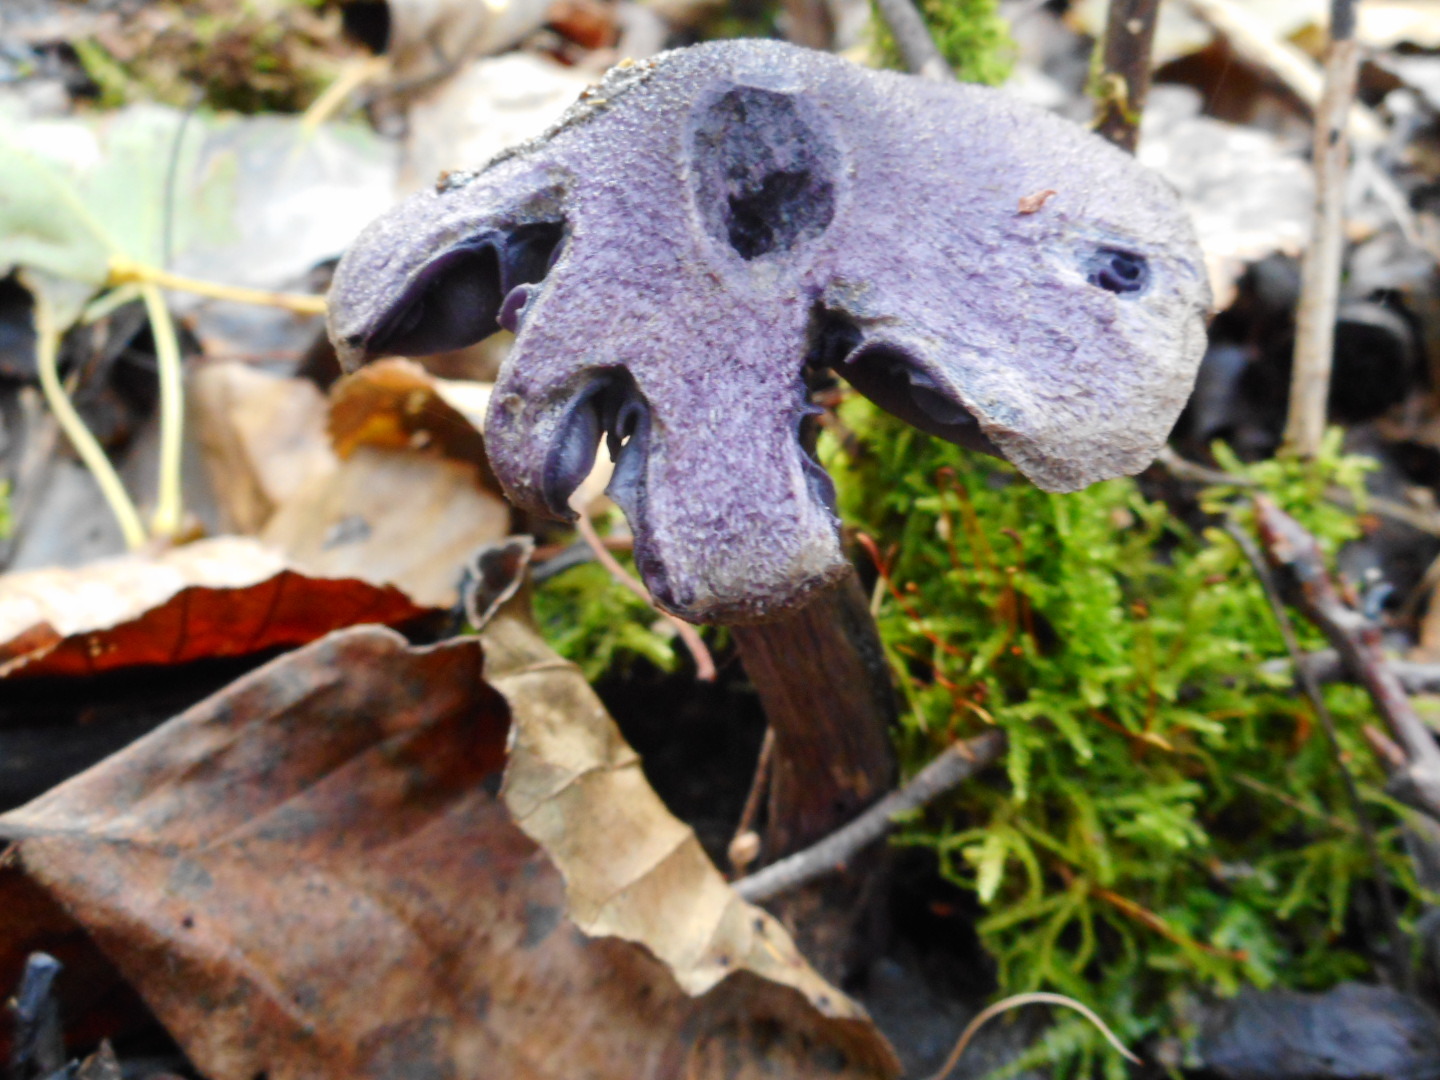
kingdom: Fungi
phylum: Basidiomycota
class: Agaricomycetes
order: Agaricales
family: Cortinariaceae
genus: Cortinarius
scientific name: Cortinarius violaceus
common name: Violet webcap
